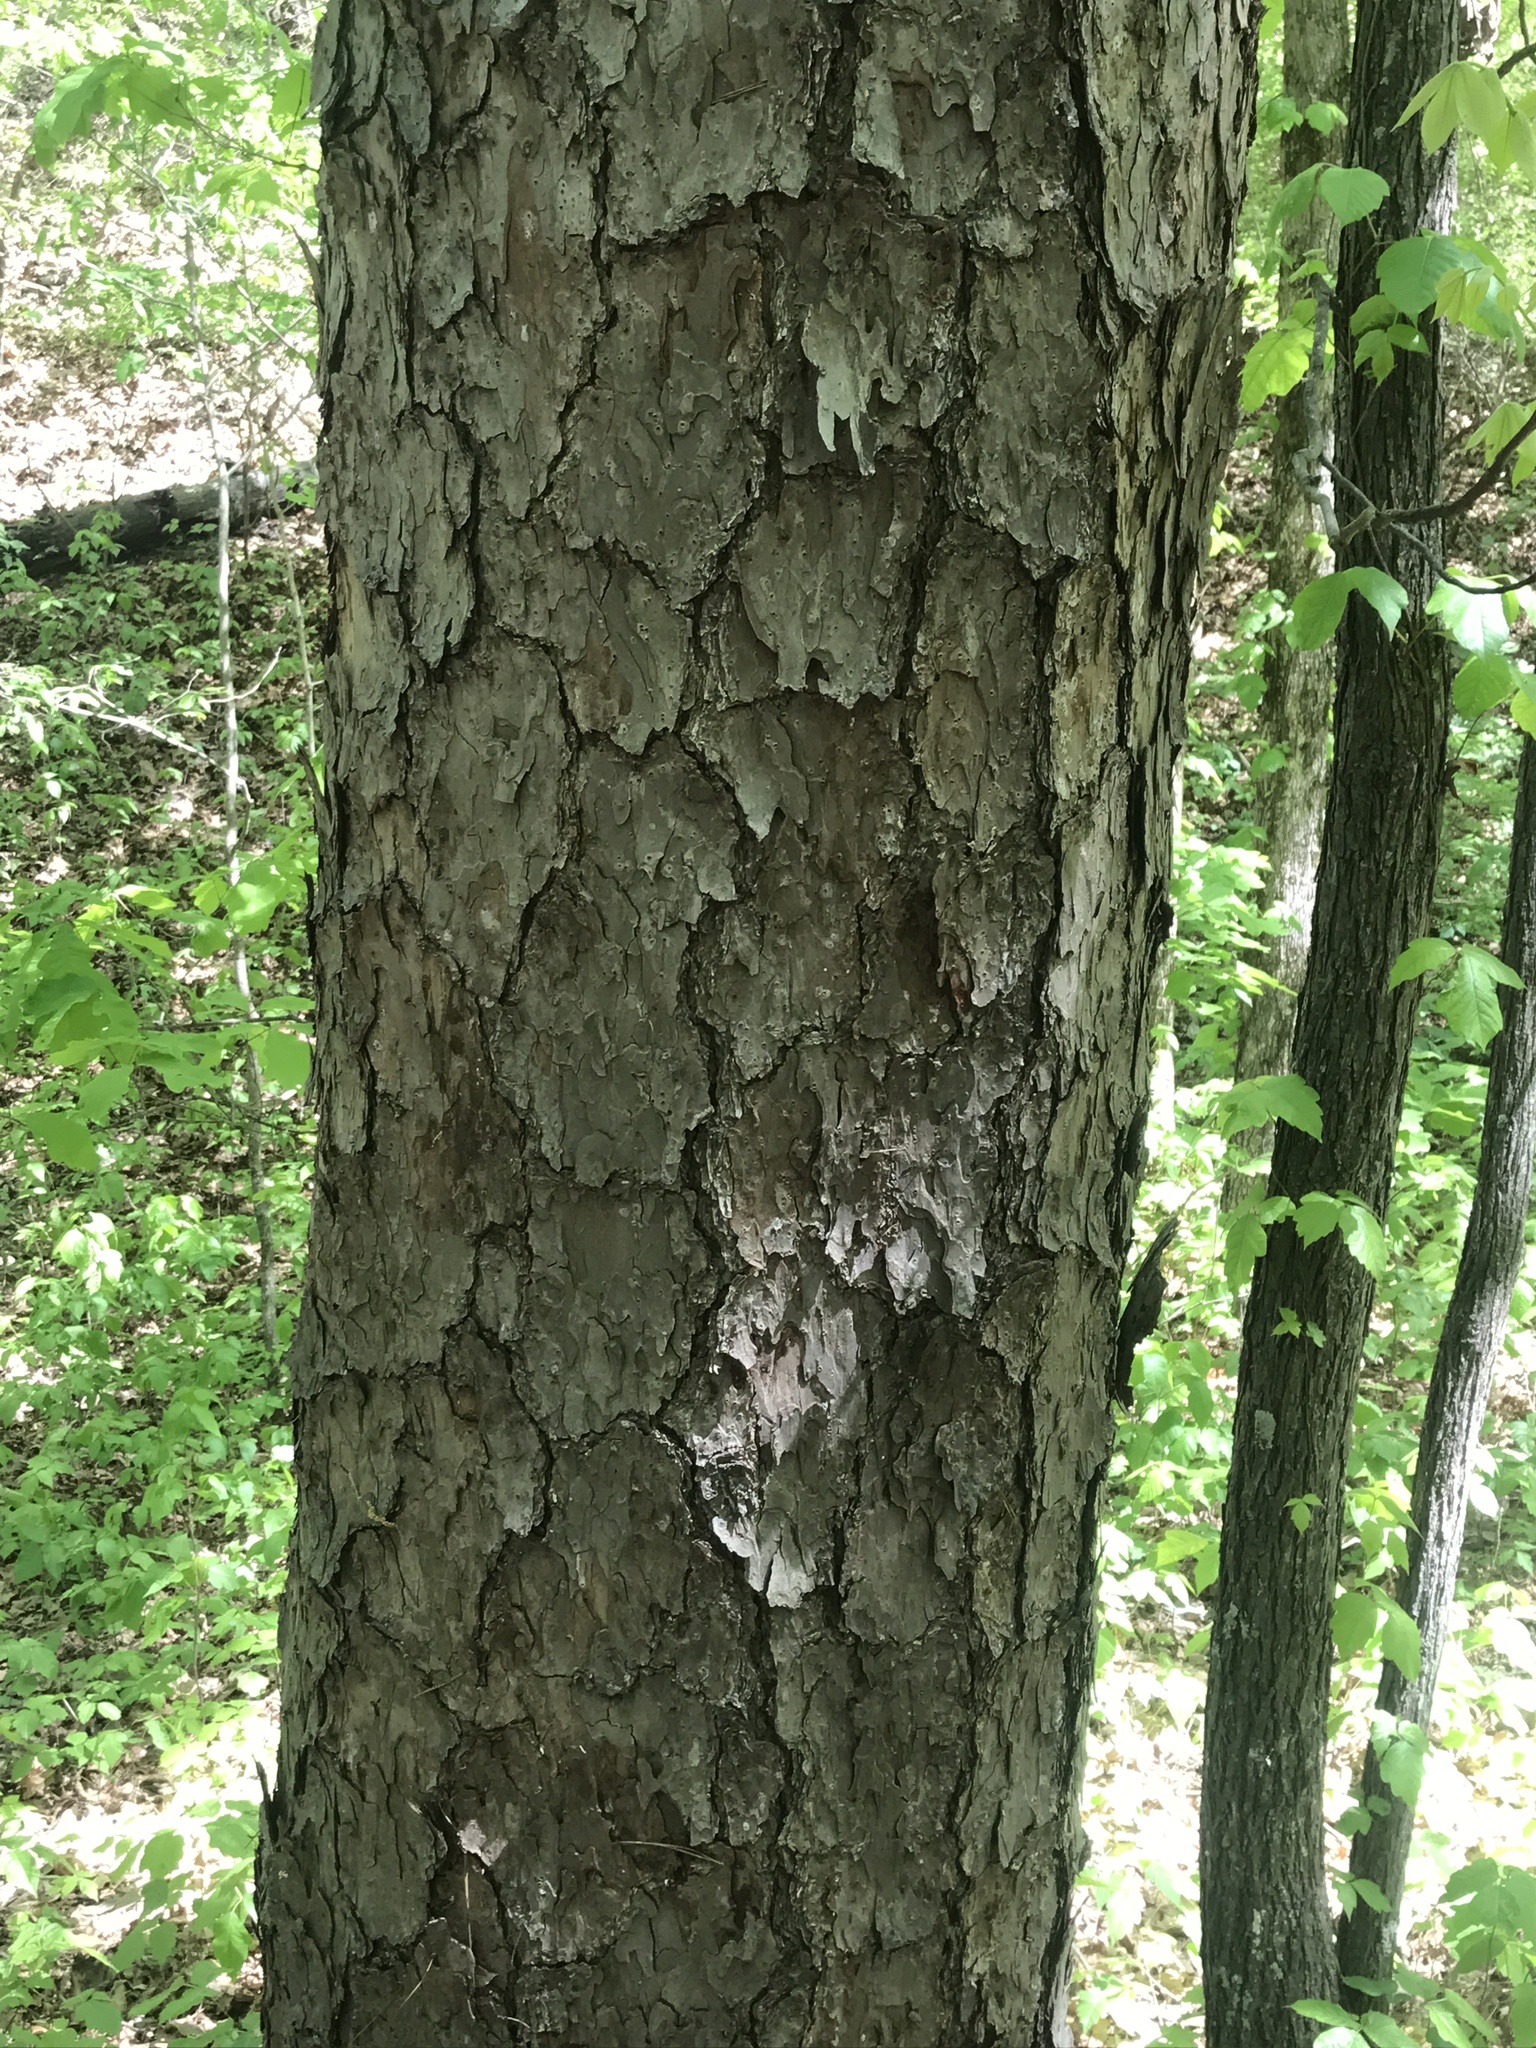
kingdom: Plantae
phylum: Tracheophyta
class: Pinopsida
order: Pinales
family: Pinaceae
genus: Pinus
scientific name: Pinus echinata
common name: Shortleaf pine
